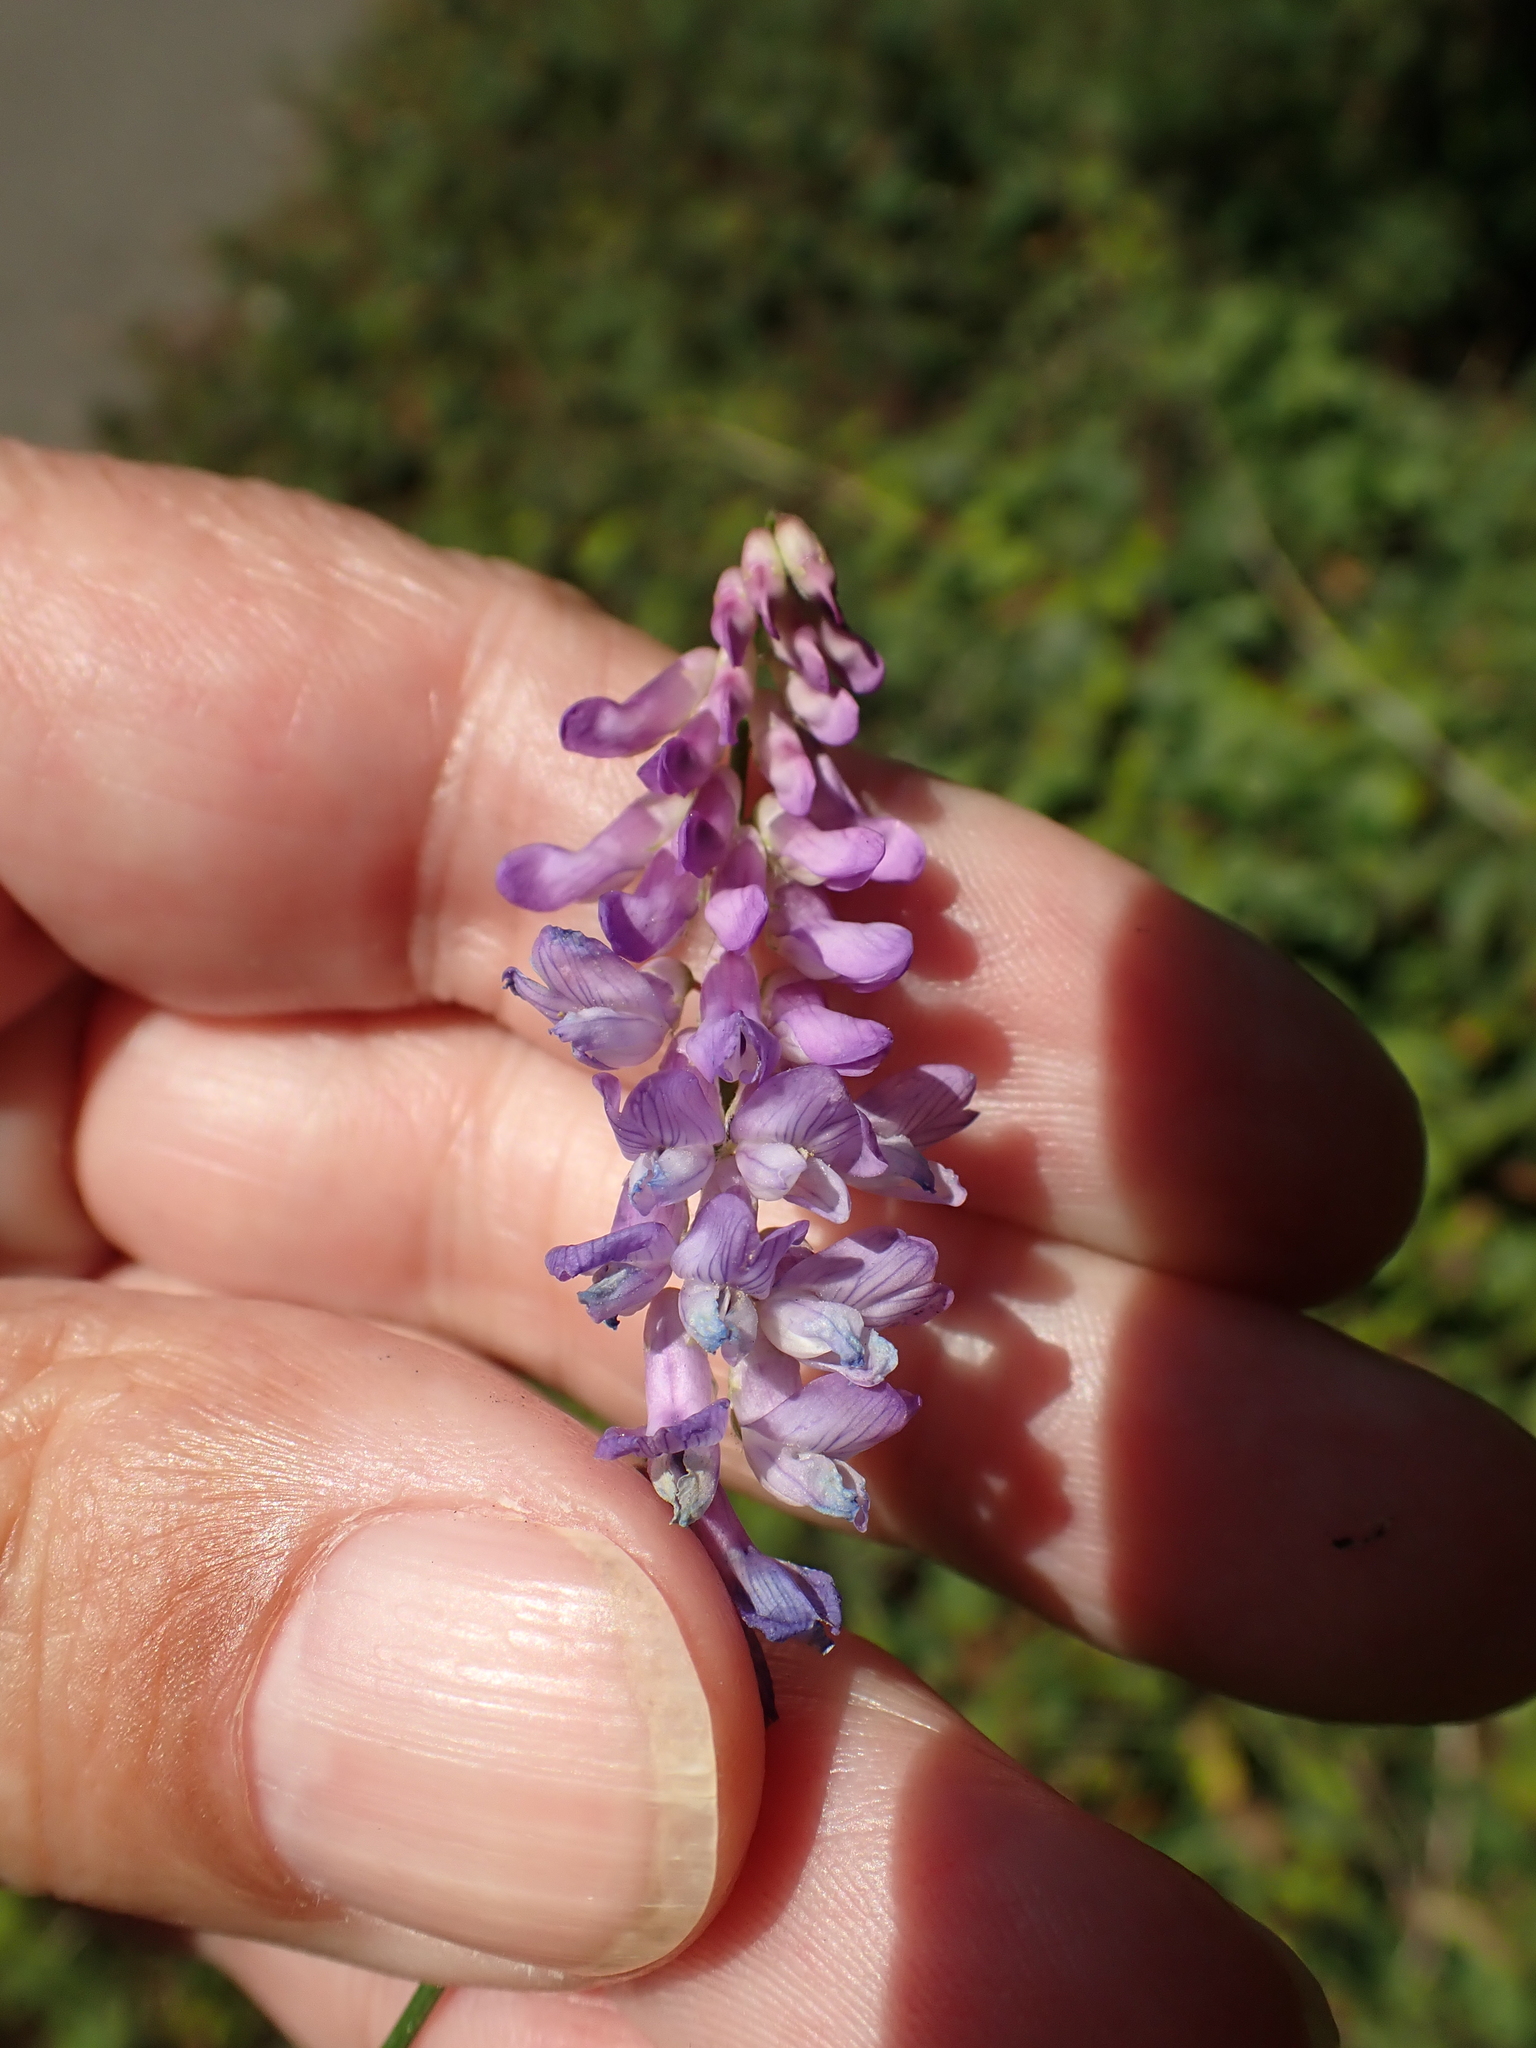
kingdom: Plantae
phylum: Tracheophyta
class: Magnoliopsida
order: Fabales
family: Fabaceae
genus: Vicia
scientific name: Vicia cracca
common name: Bird vetch
